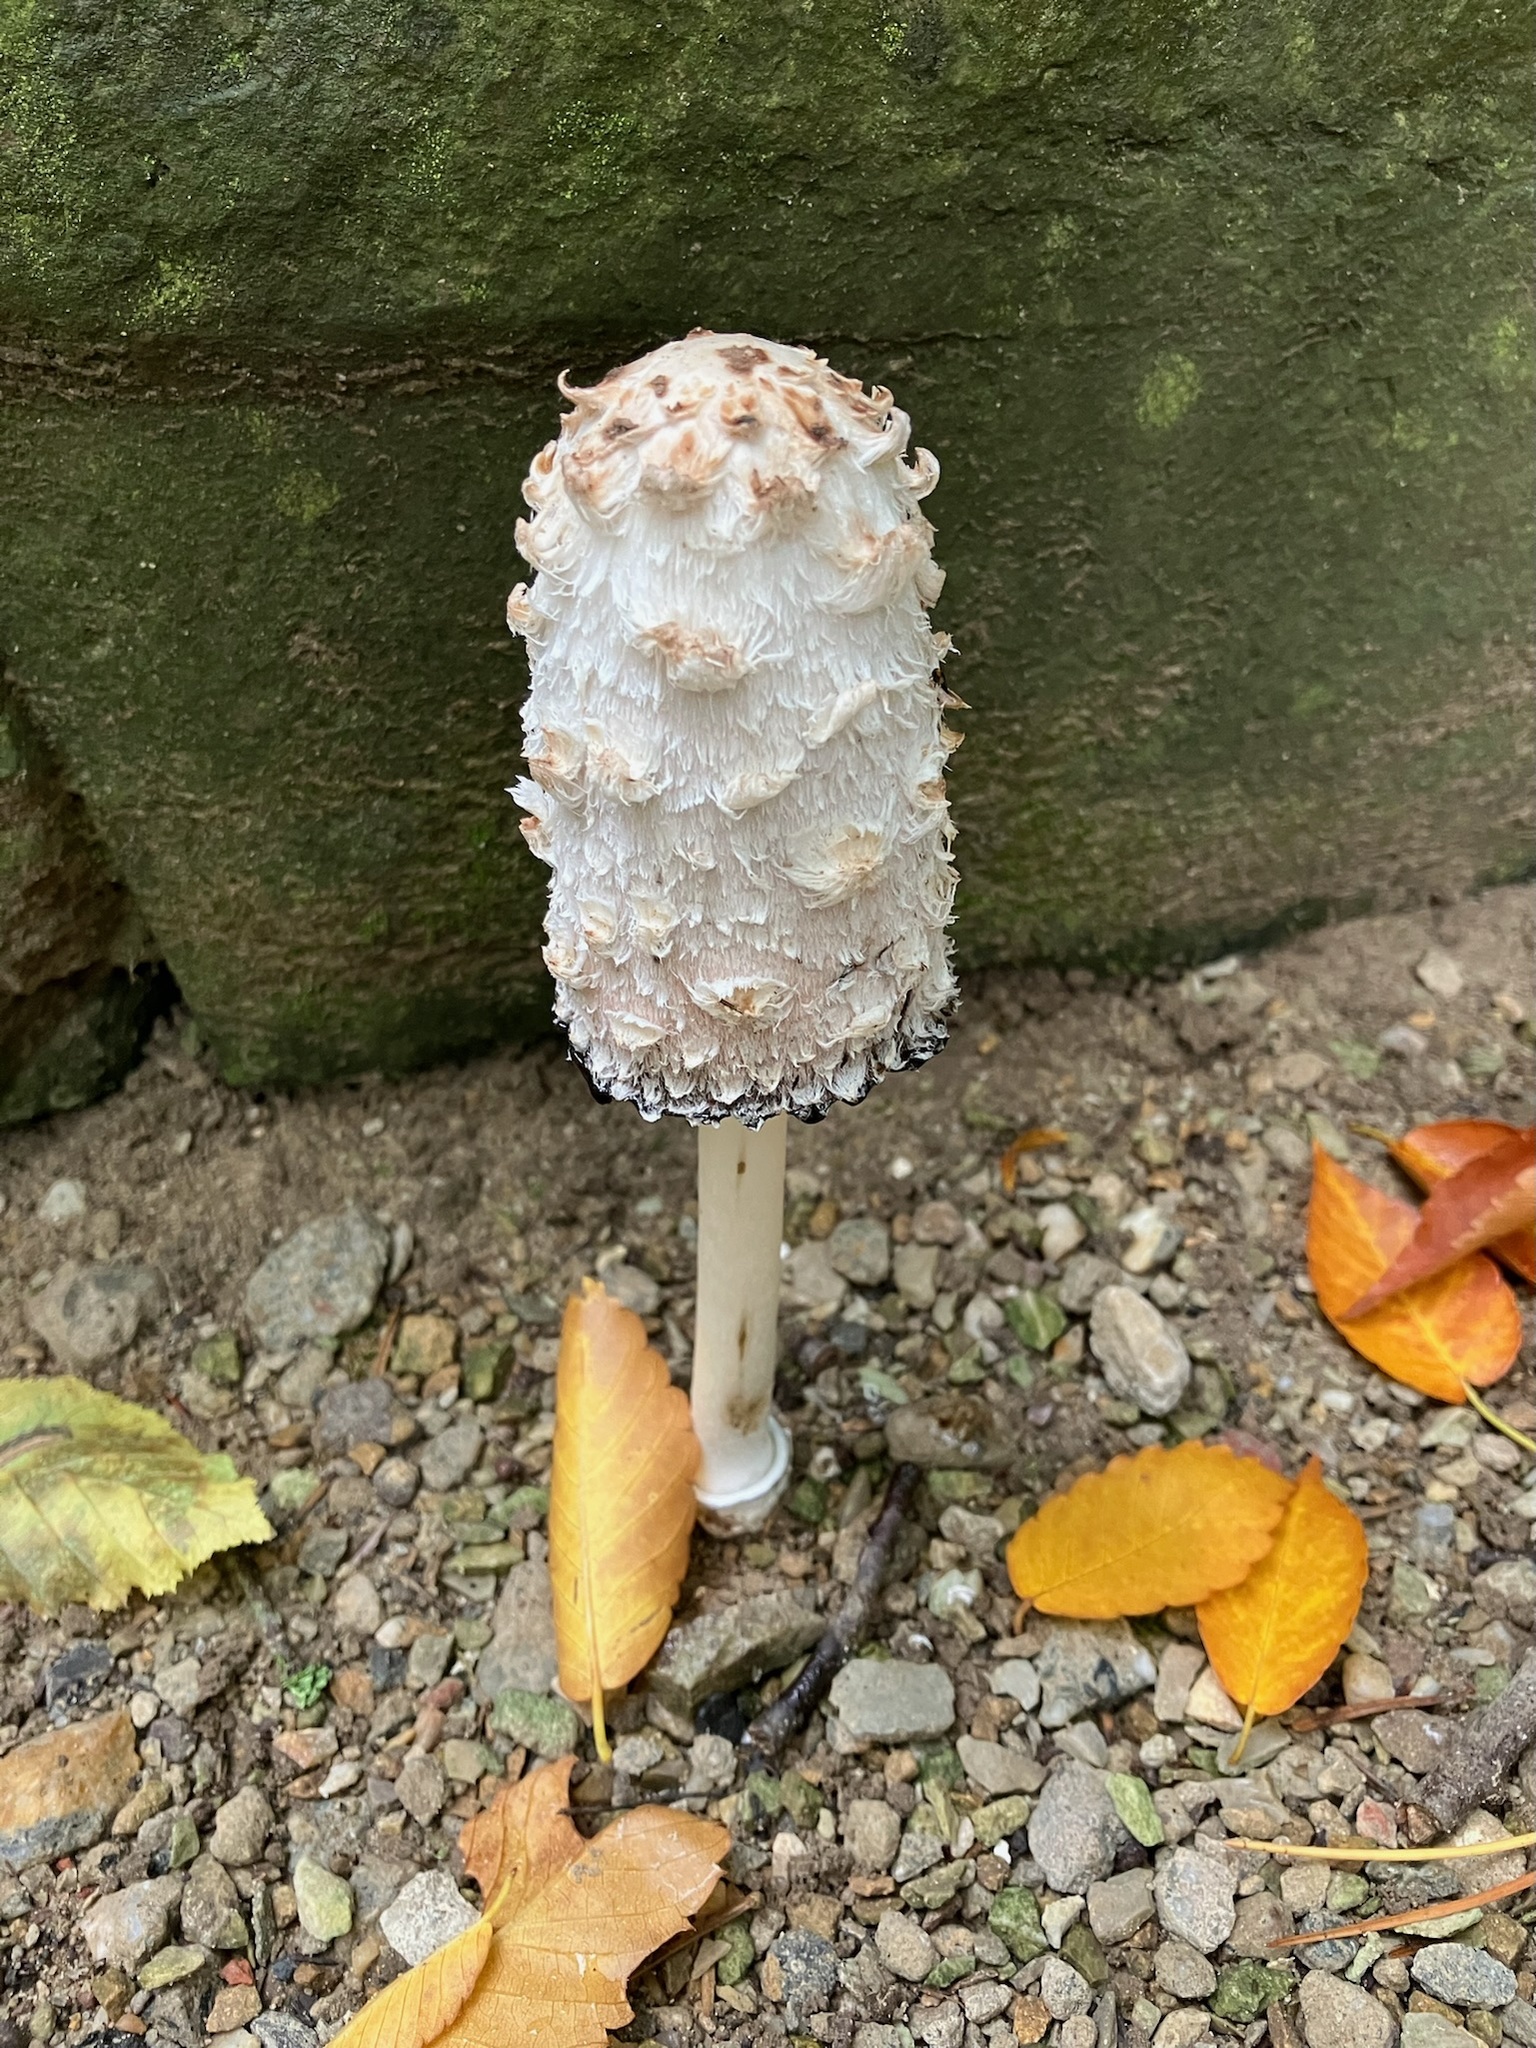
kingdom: Fungi
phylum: Basidiomycota
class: Agaricomycetes
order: Agaricales
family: Agaricaceae
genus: Coprinus
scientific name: Coprinus comatus
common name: Lawyer's wig
